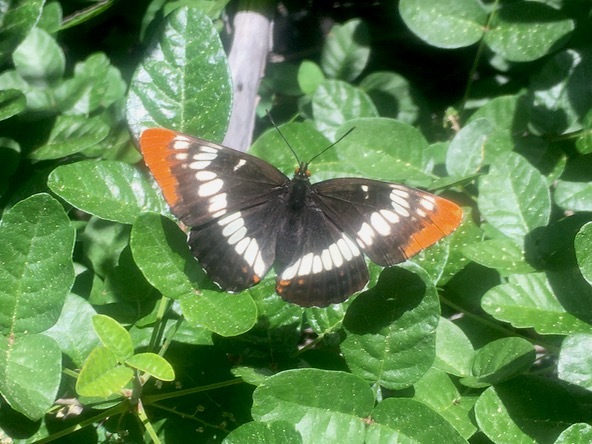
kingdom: Animalia
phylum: Arthropoda
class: Insecta
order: Lepidoptera
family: Nymphalidae
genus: Limenitis
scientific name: Limenitis lorquini
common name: Lorquin's admiral
